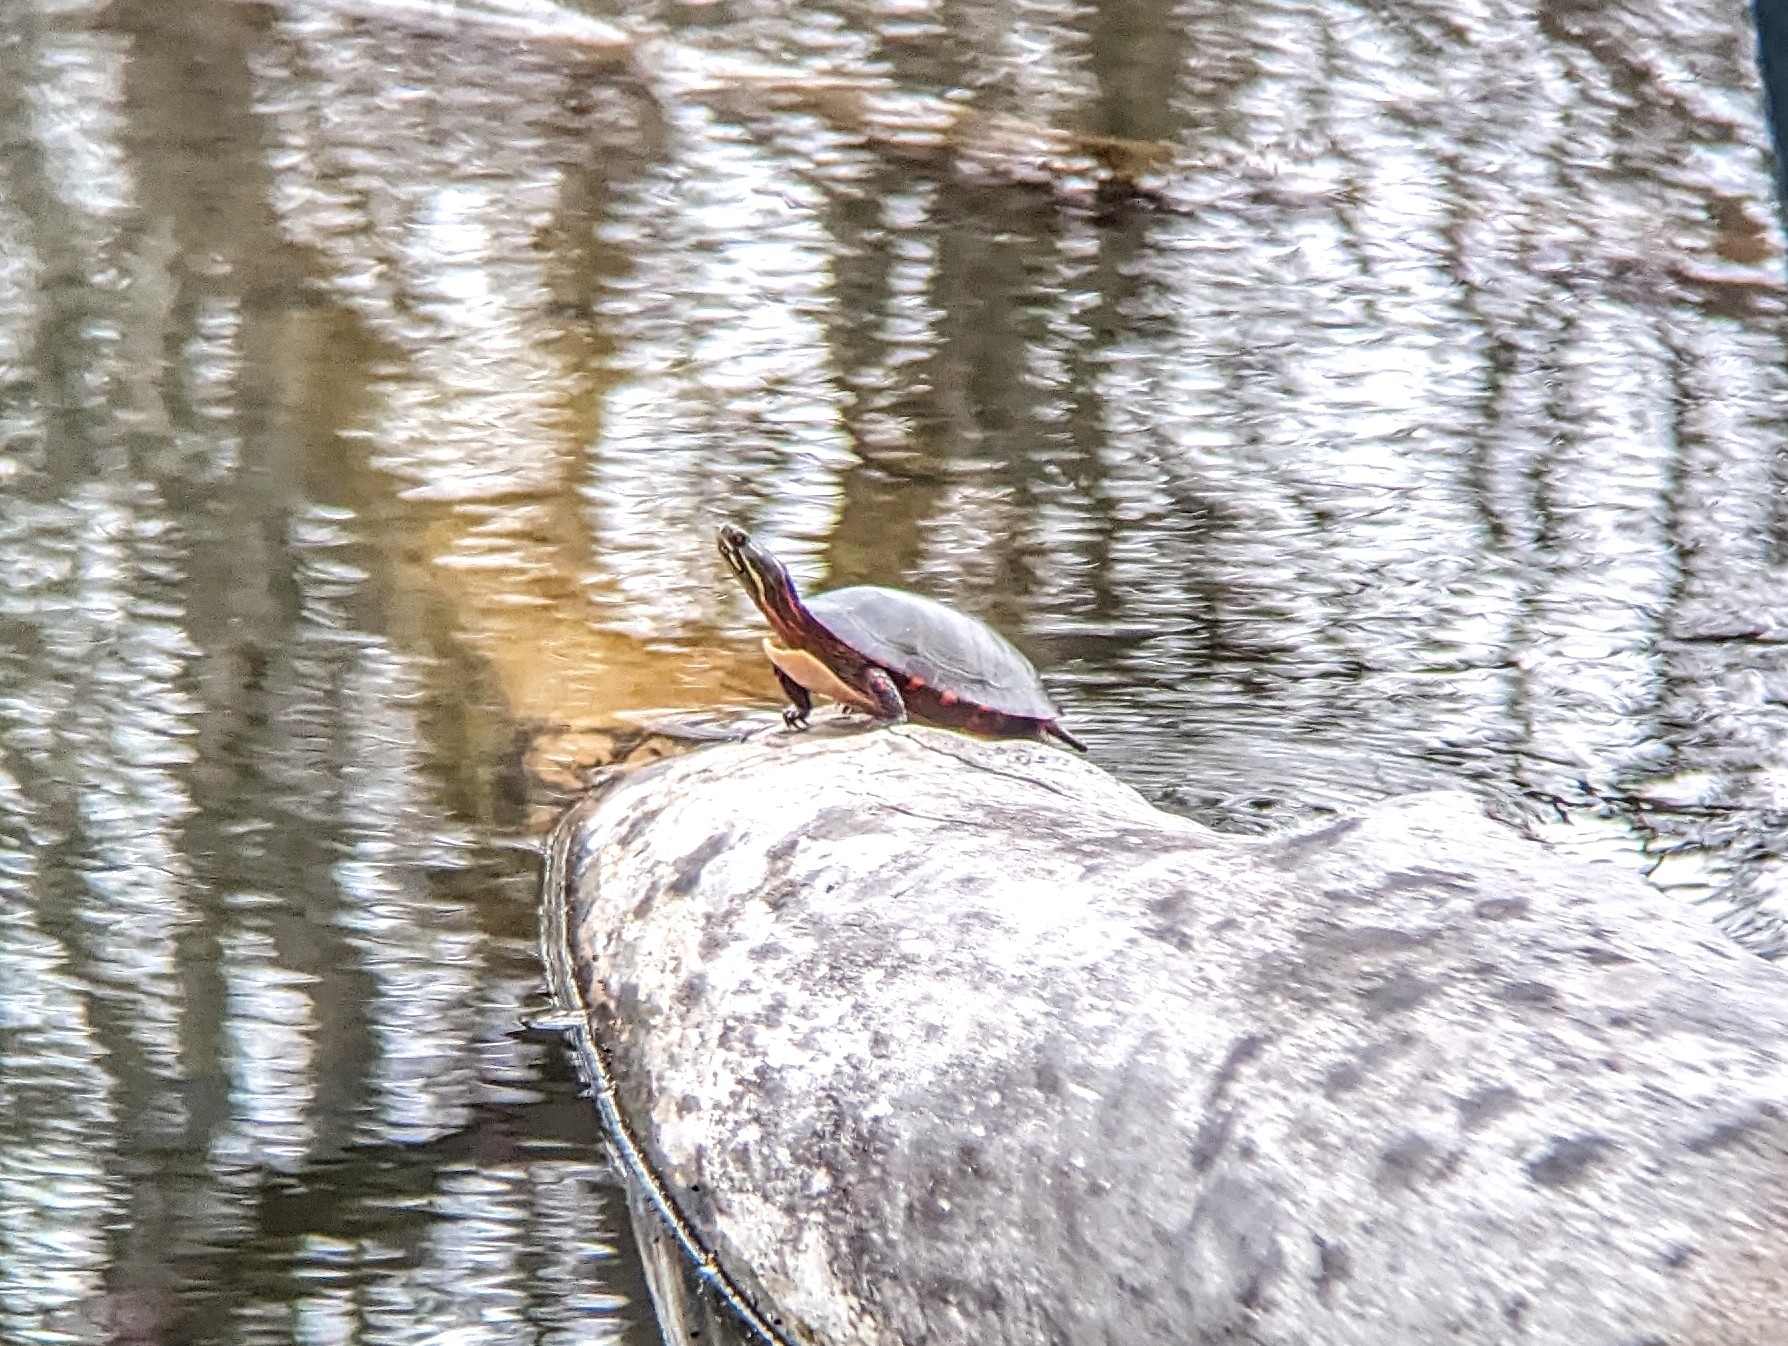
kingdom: Animalia
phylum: Chordata
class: Testudines
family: Emydidae
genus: Chrysemys
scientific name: Chrysemys picta
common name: Painted turtle
